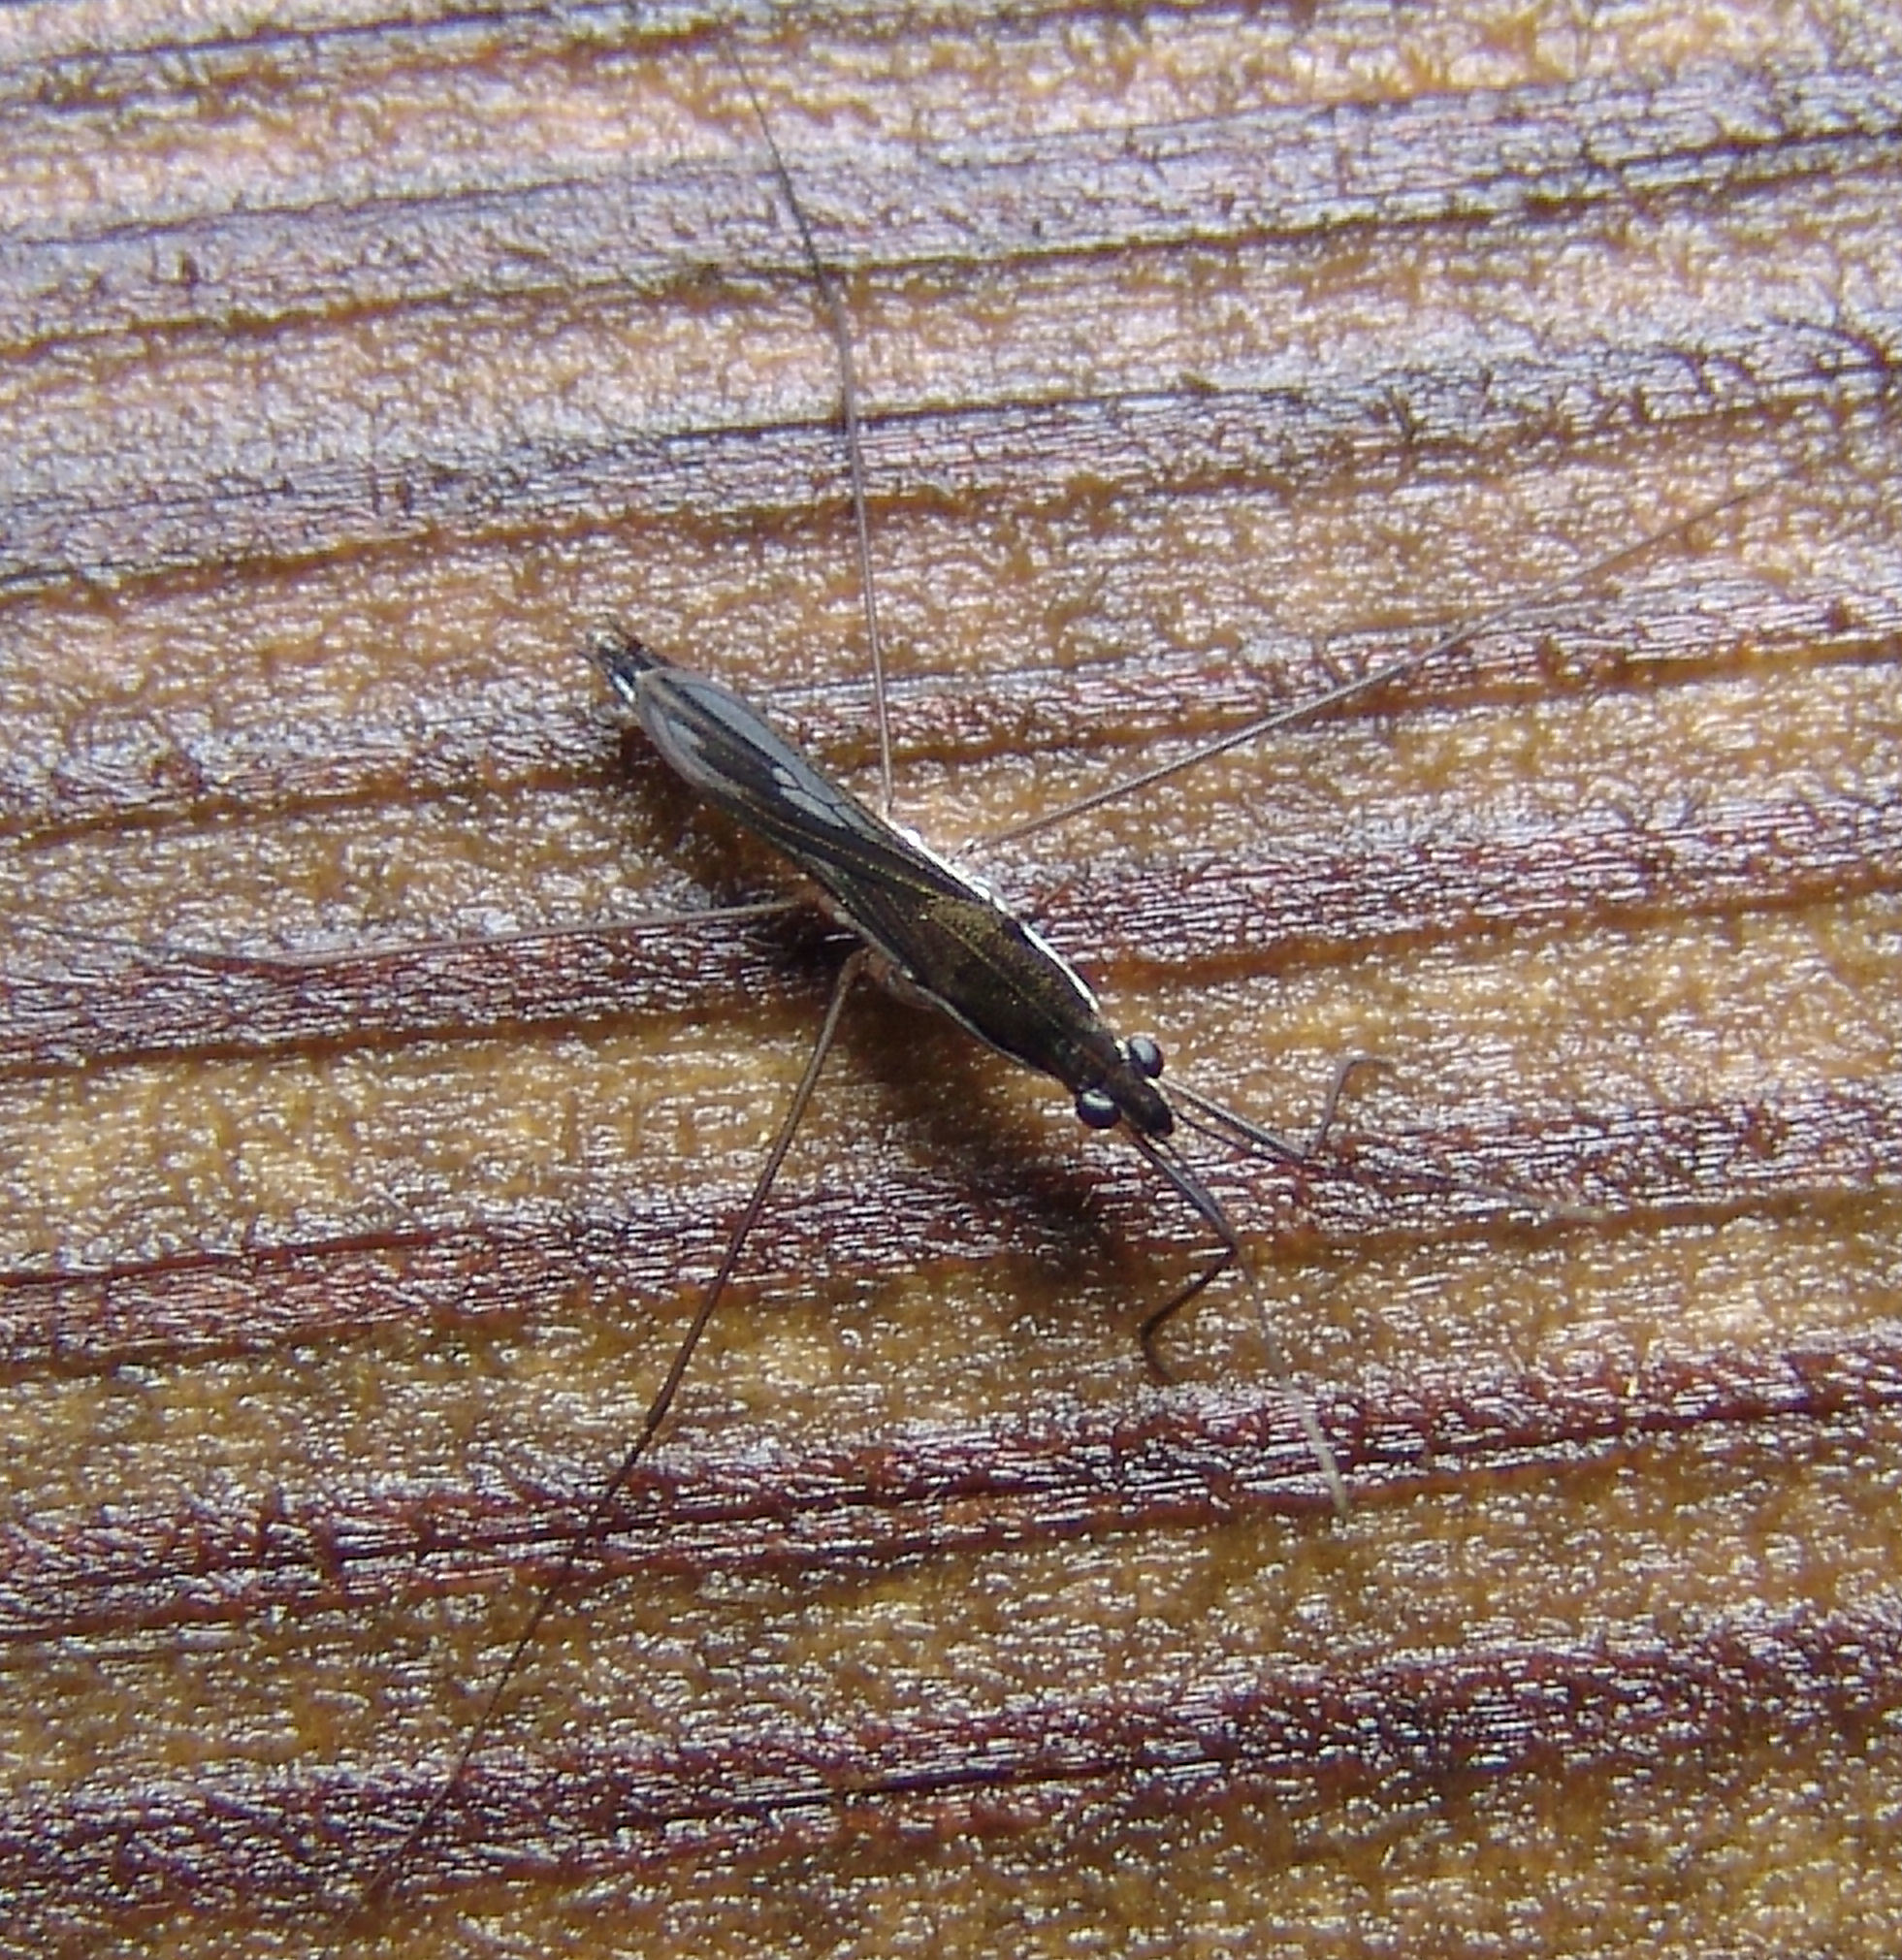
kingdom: Animalia
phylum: Arthropoda
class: Insecta
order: Hemiptera
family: Gerridae
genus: Limnoporus
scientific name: Limnoporus canaliculatus
